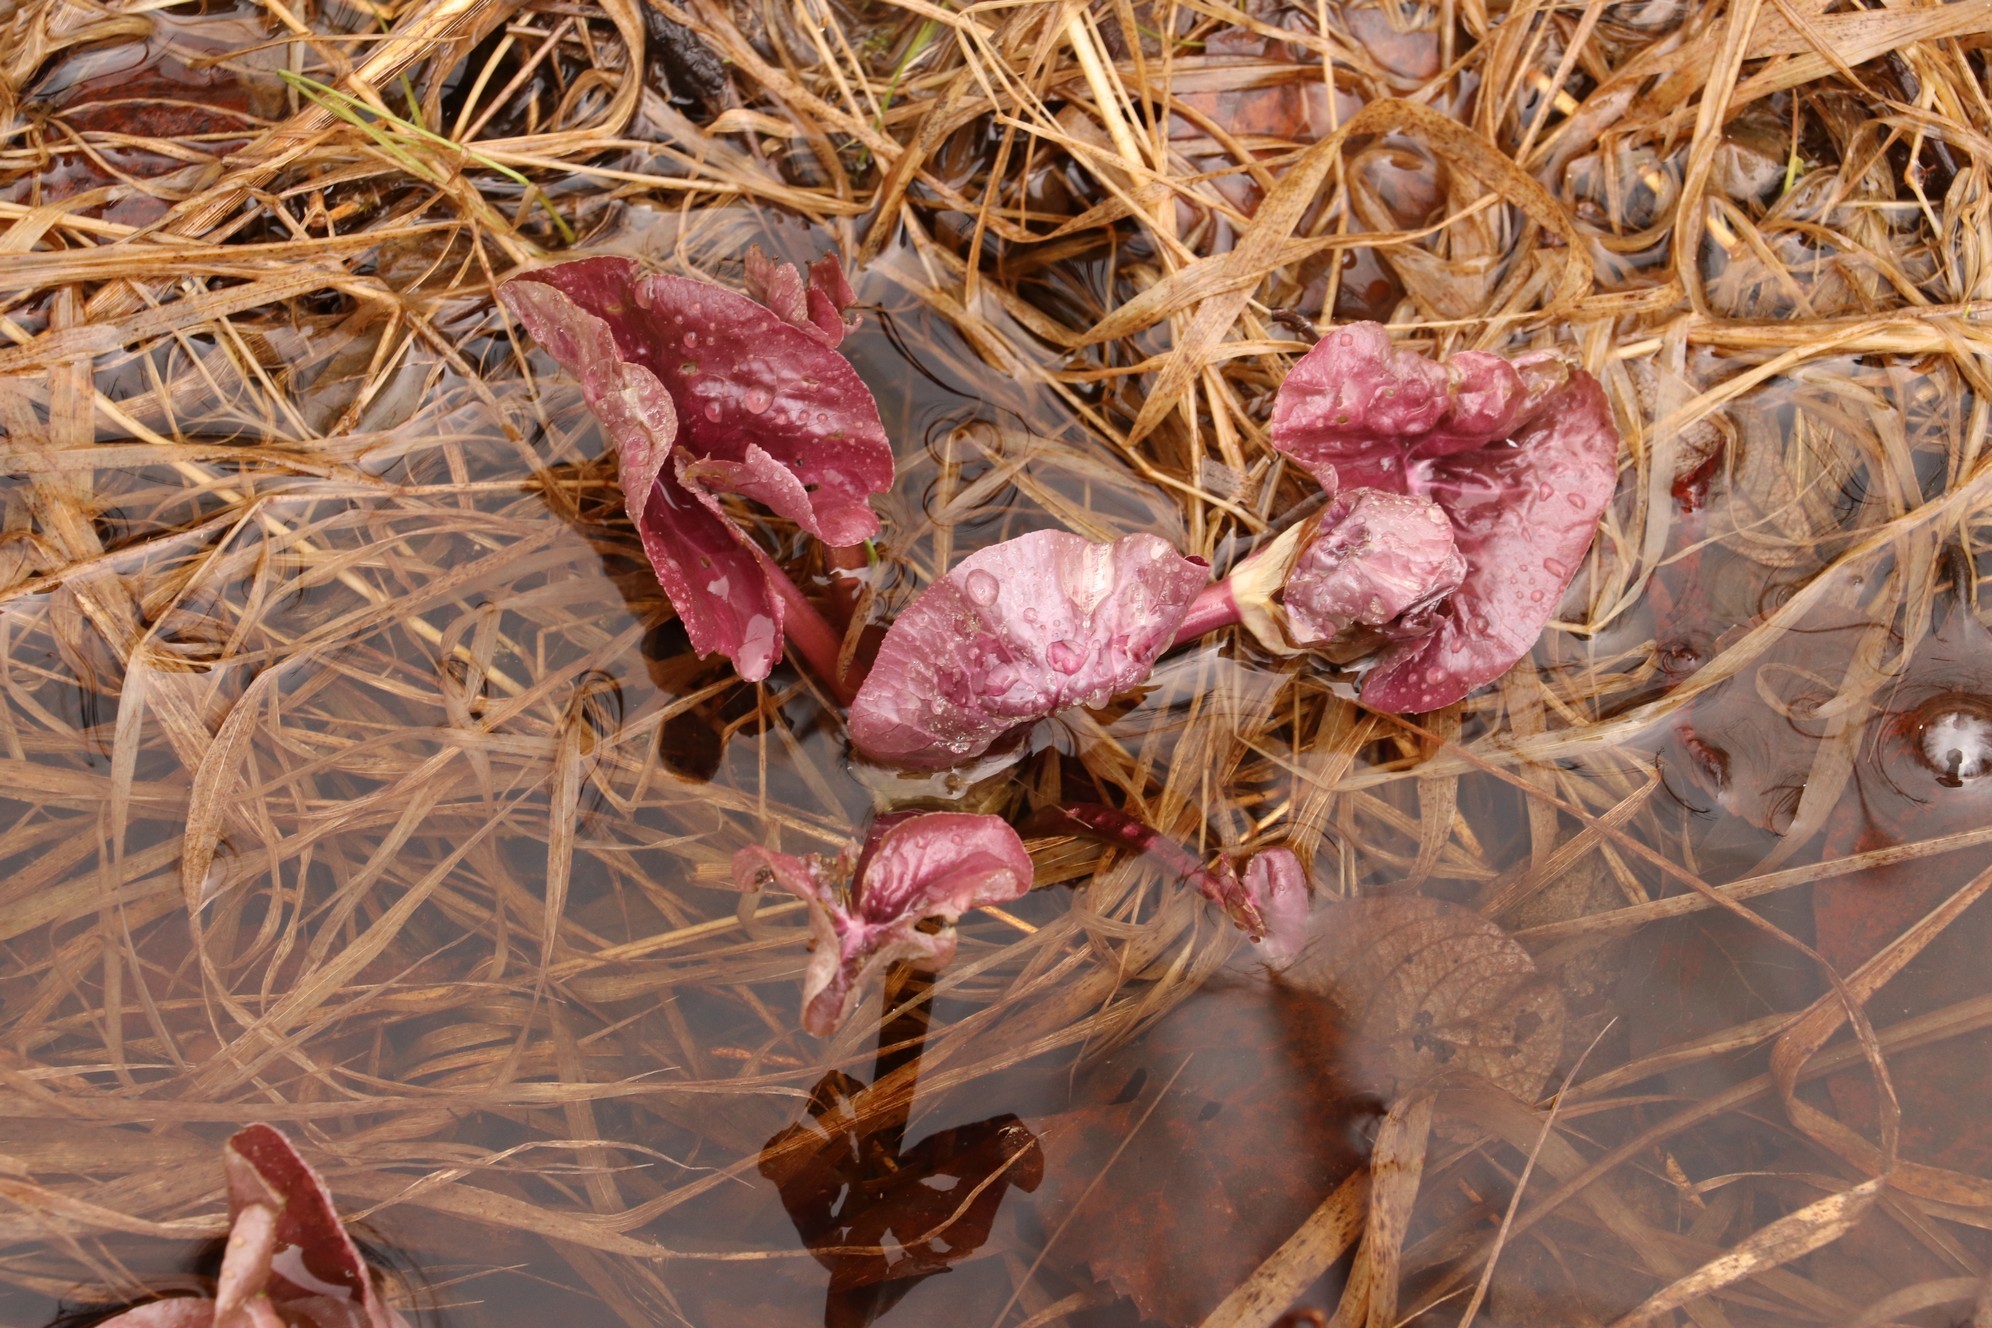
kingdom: Plantae
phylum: Tracheophyta
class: Magnoliopsida
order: Ranunculales
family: Ranunculaceae
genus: Caltha
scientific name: Caltha palustris
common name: Marsh marigold
